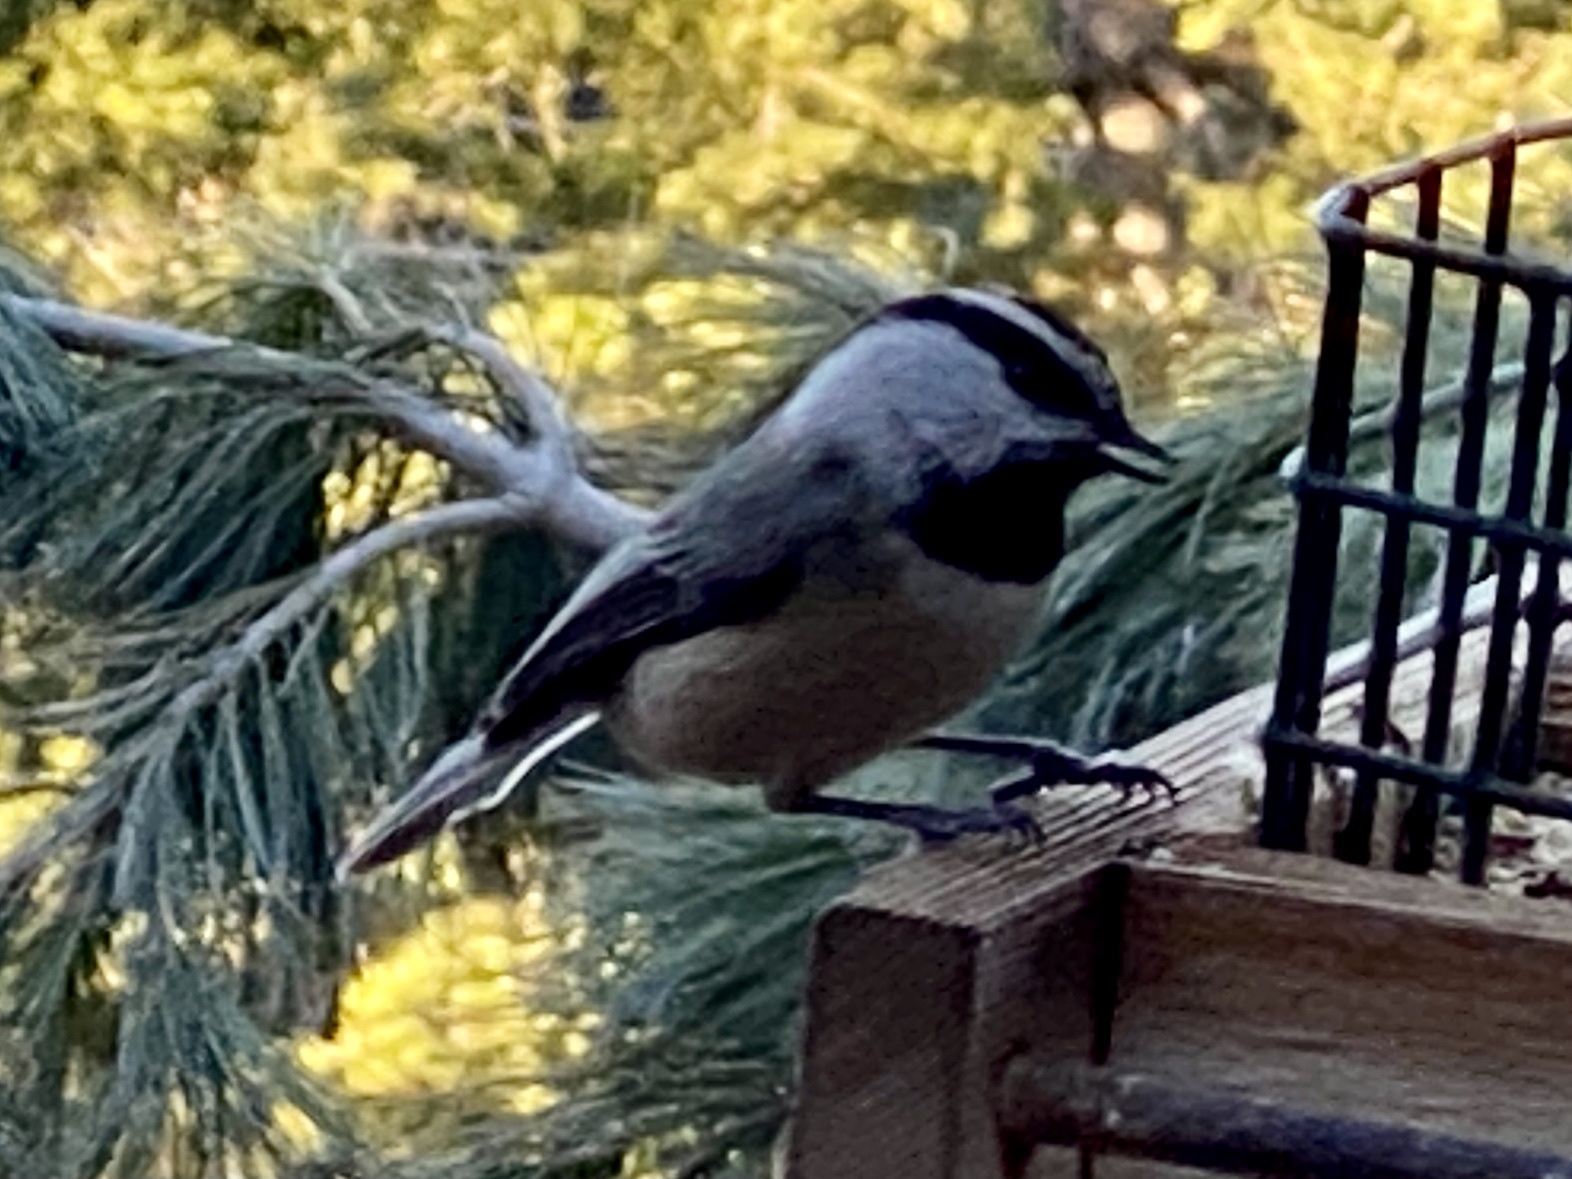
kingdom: Animalia
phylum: Chordata
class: Aves
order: Passeriformes
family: Paridae
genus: Poecile
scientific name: Poecile gambeli
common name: Mountain chickadee
